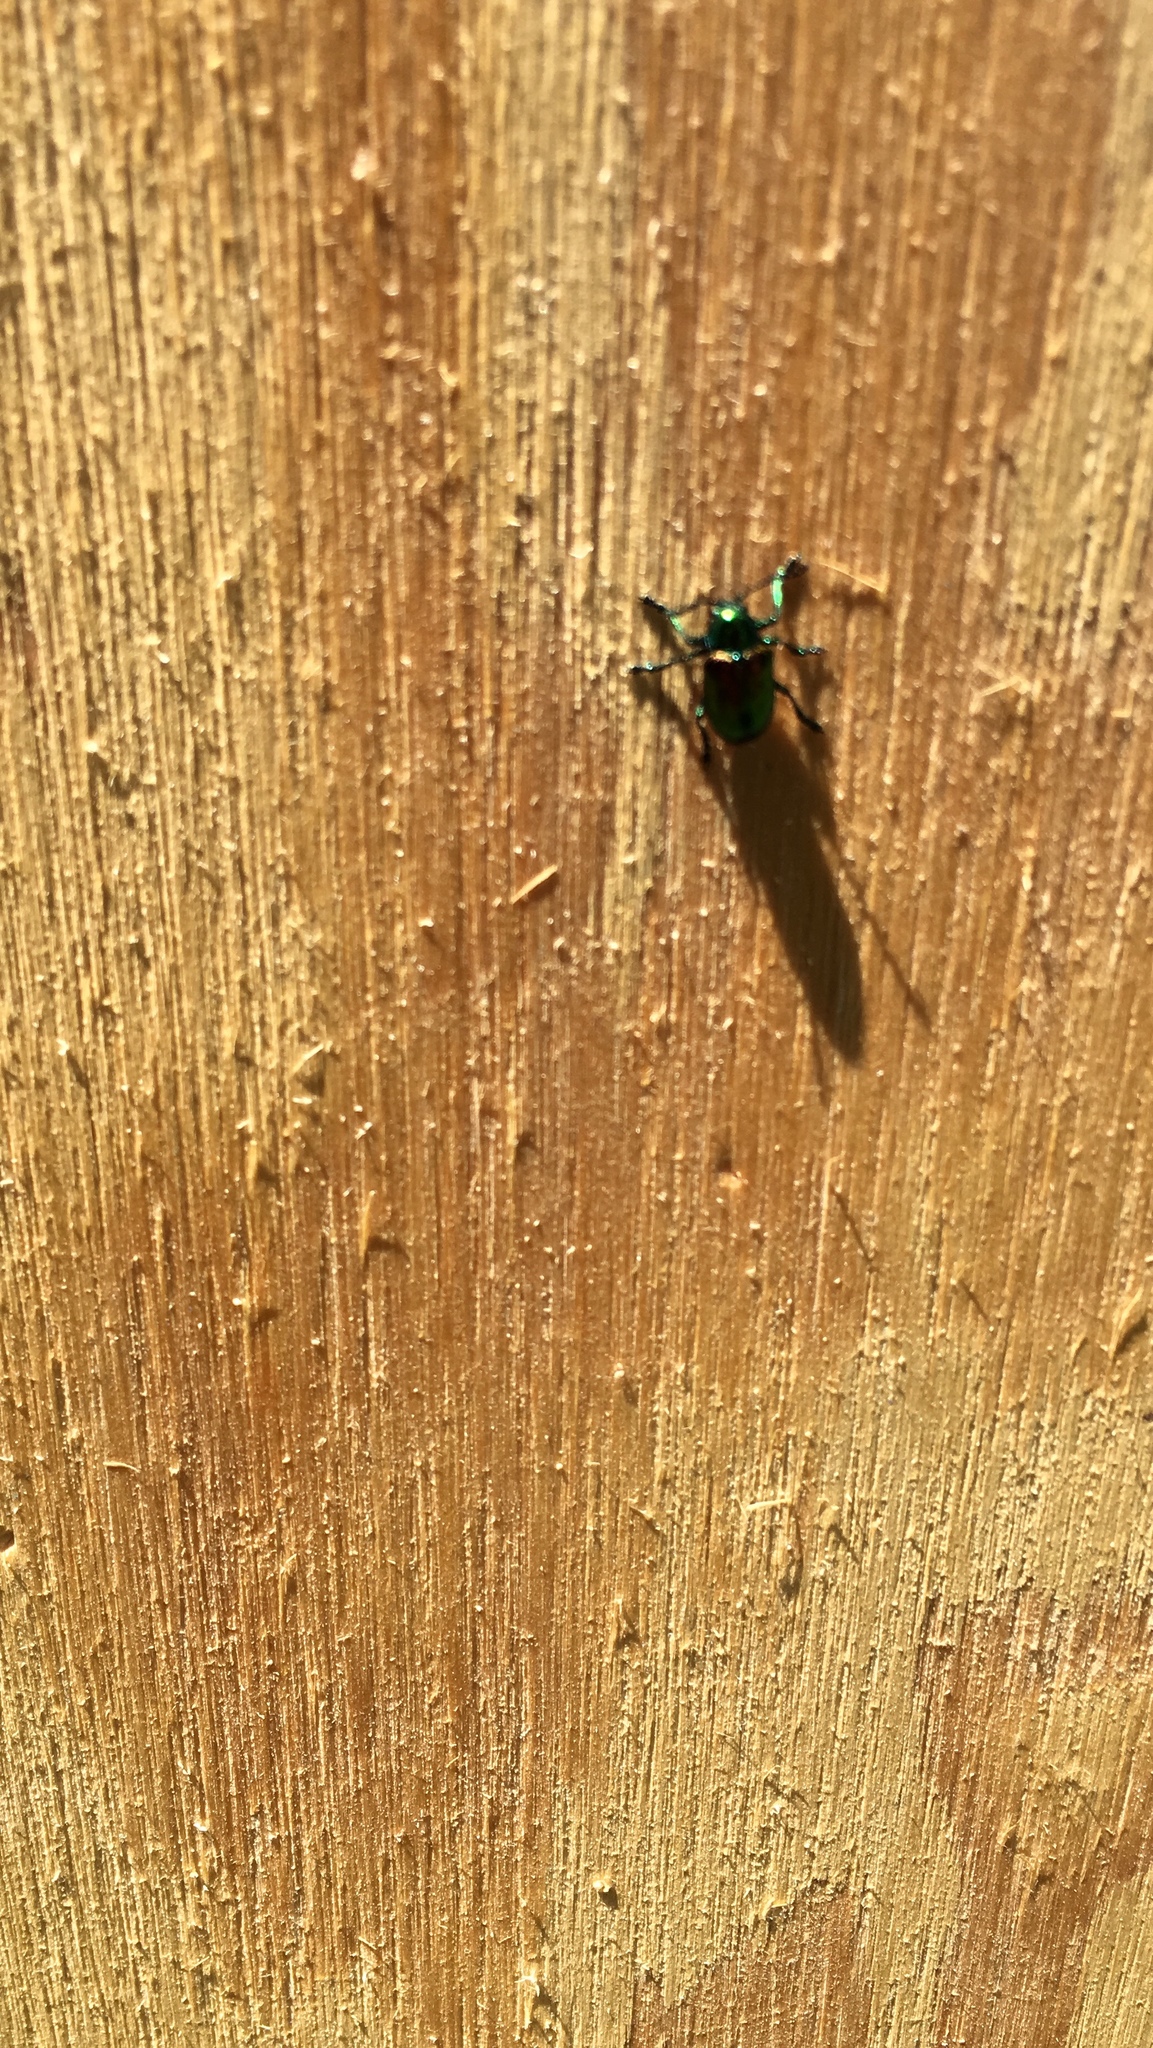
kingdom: Animalia
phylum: Arthropoda
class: Insecta
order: Coleoptera
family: Chrysomelidae
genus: Chrysochus
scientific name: Chrysochus auratus
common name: Dogbane leaf beetle
